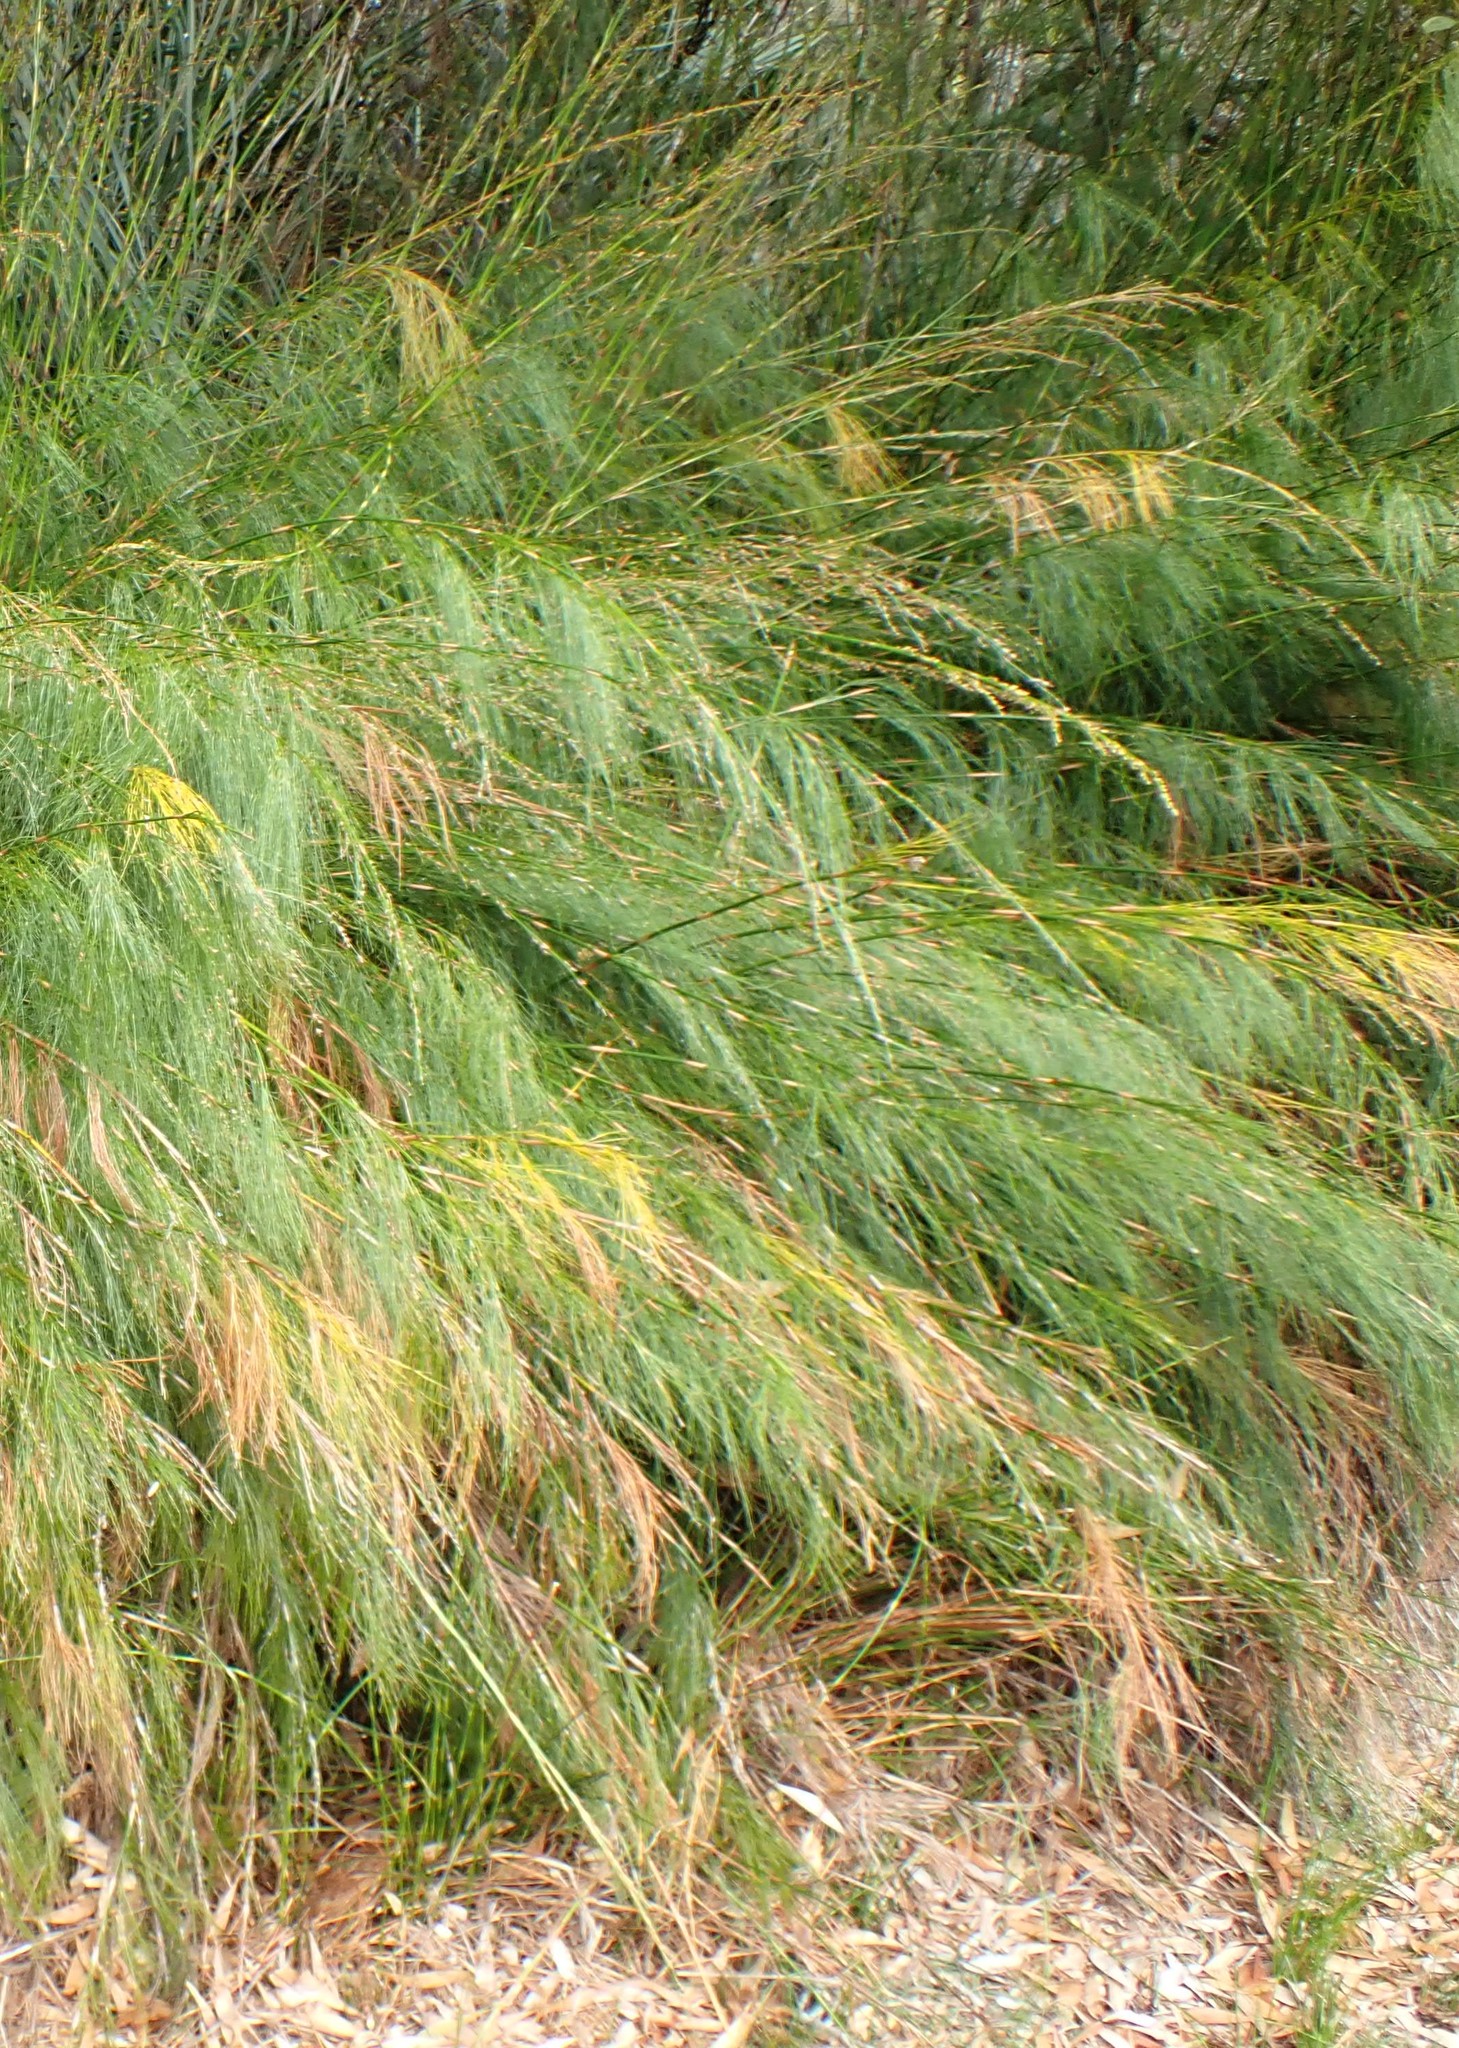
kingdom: Plantae
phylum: Tracheophyta
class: Liliopsida
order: Poales
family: Restionaceae
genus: Baloskion
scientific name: Baloskion tetraphyllum
